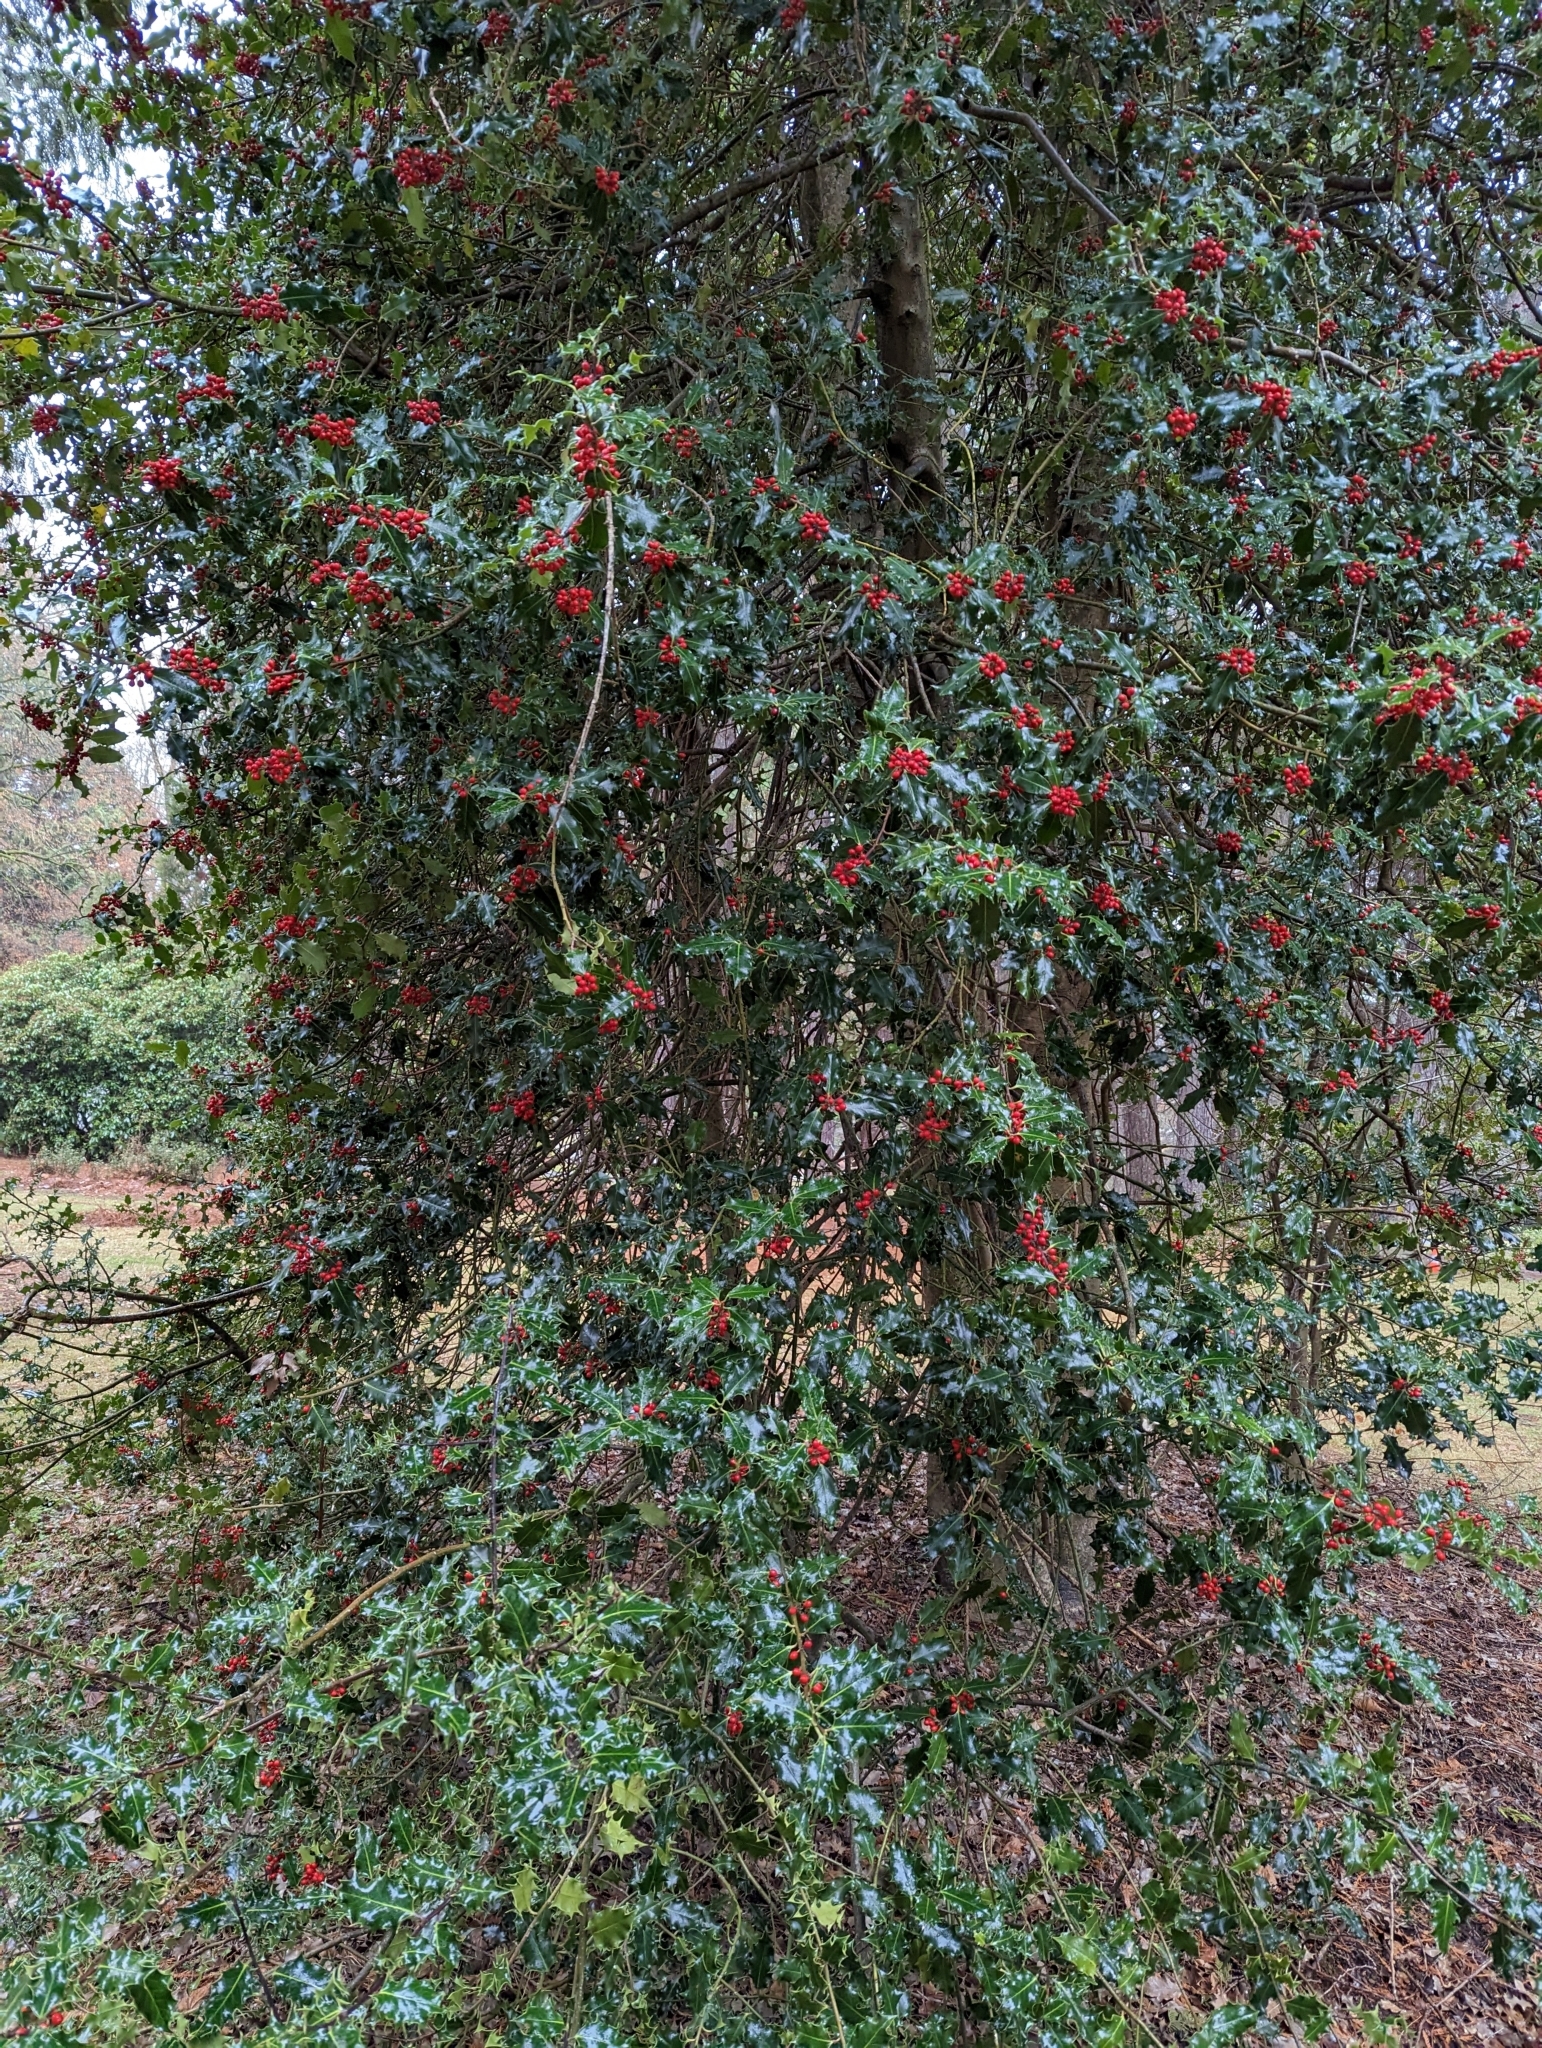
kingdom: Plantae
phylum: Tracheophyta
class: Magnoliopsida
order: Aquifoliales
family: Aquifoliaceae
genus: Ilex
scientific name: Ilex aquifolium
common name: English holly
